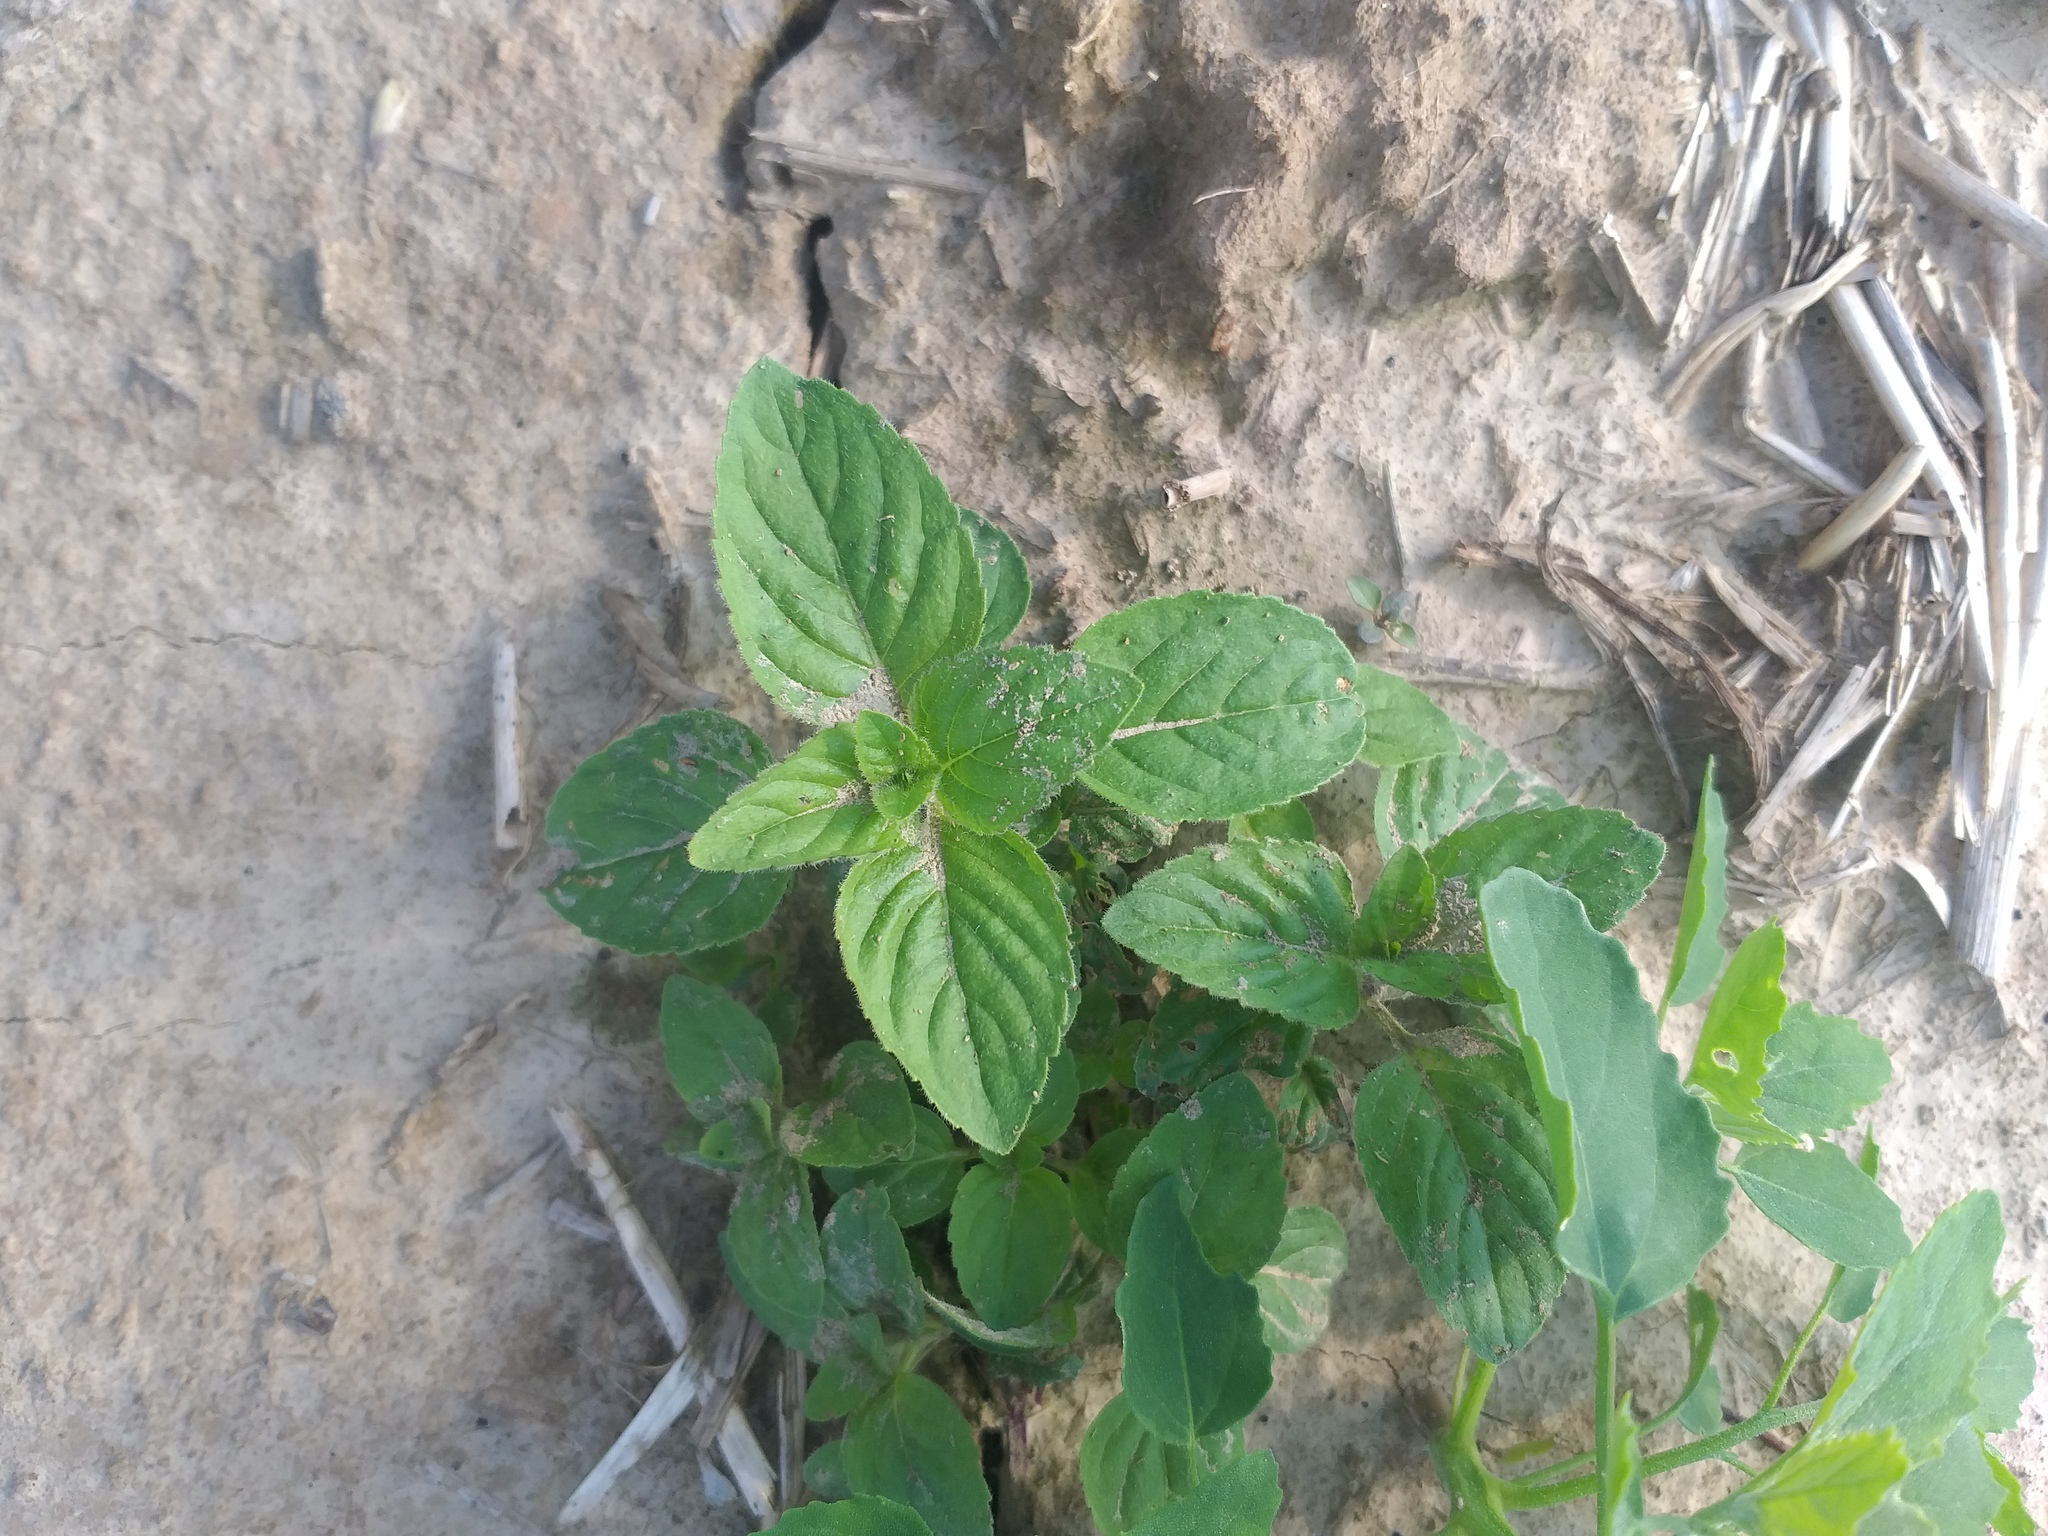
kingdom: Plantae
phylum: Tracheophyta
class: Magnoliopsida
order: Lamiales
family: Lamiaceae
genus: Mentha
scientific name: Mentha arvensis
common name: Corn mint
